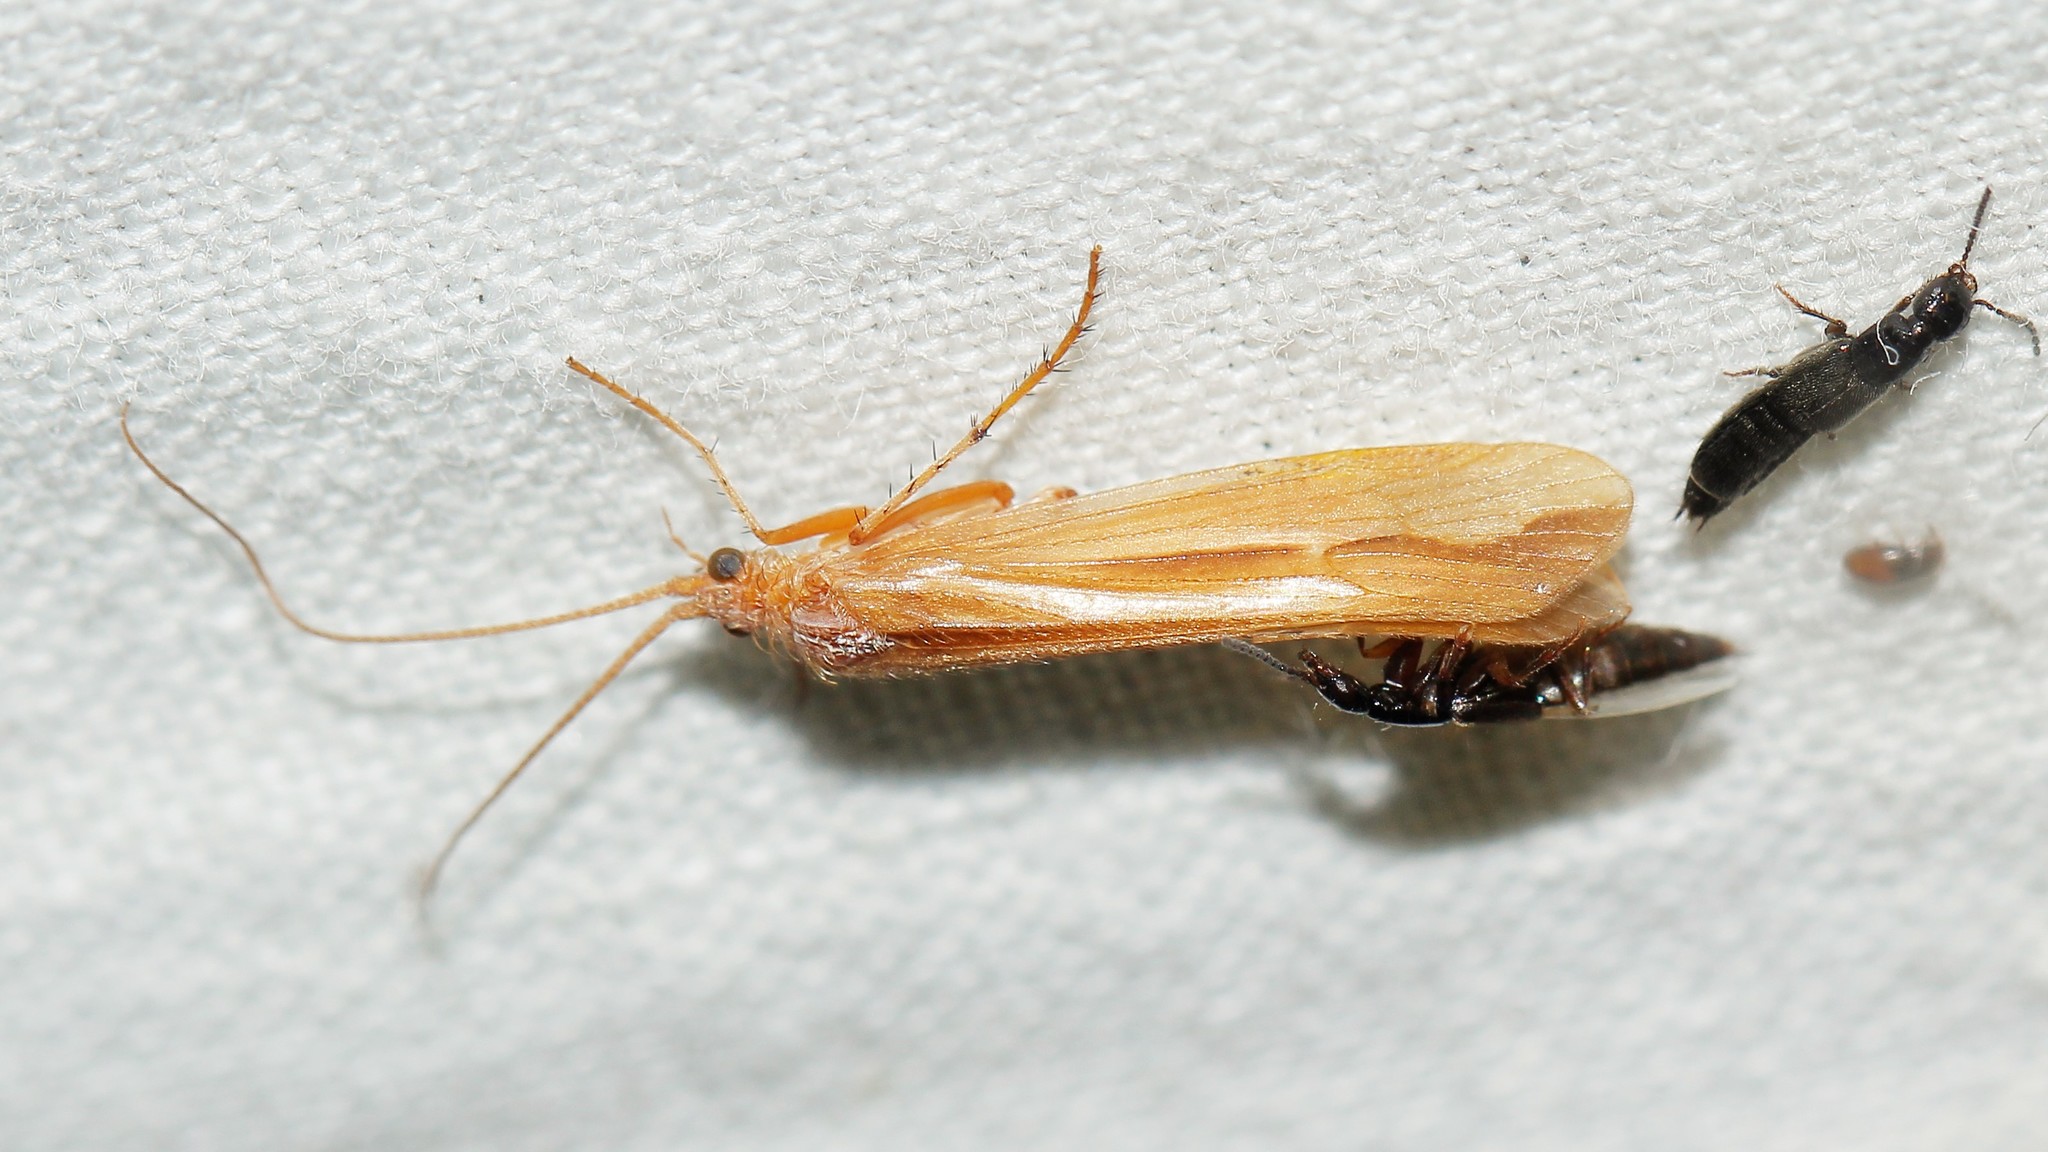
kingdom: Animalia
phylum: Arthropoda
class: Insecta
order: Trichoptera
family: Limnephilidae
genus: Limnephilus
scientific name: Limnephilus vittatus
